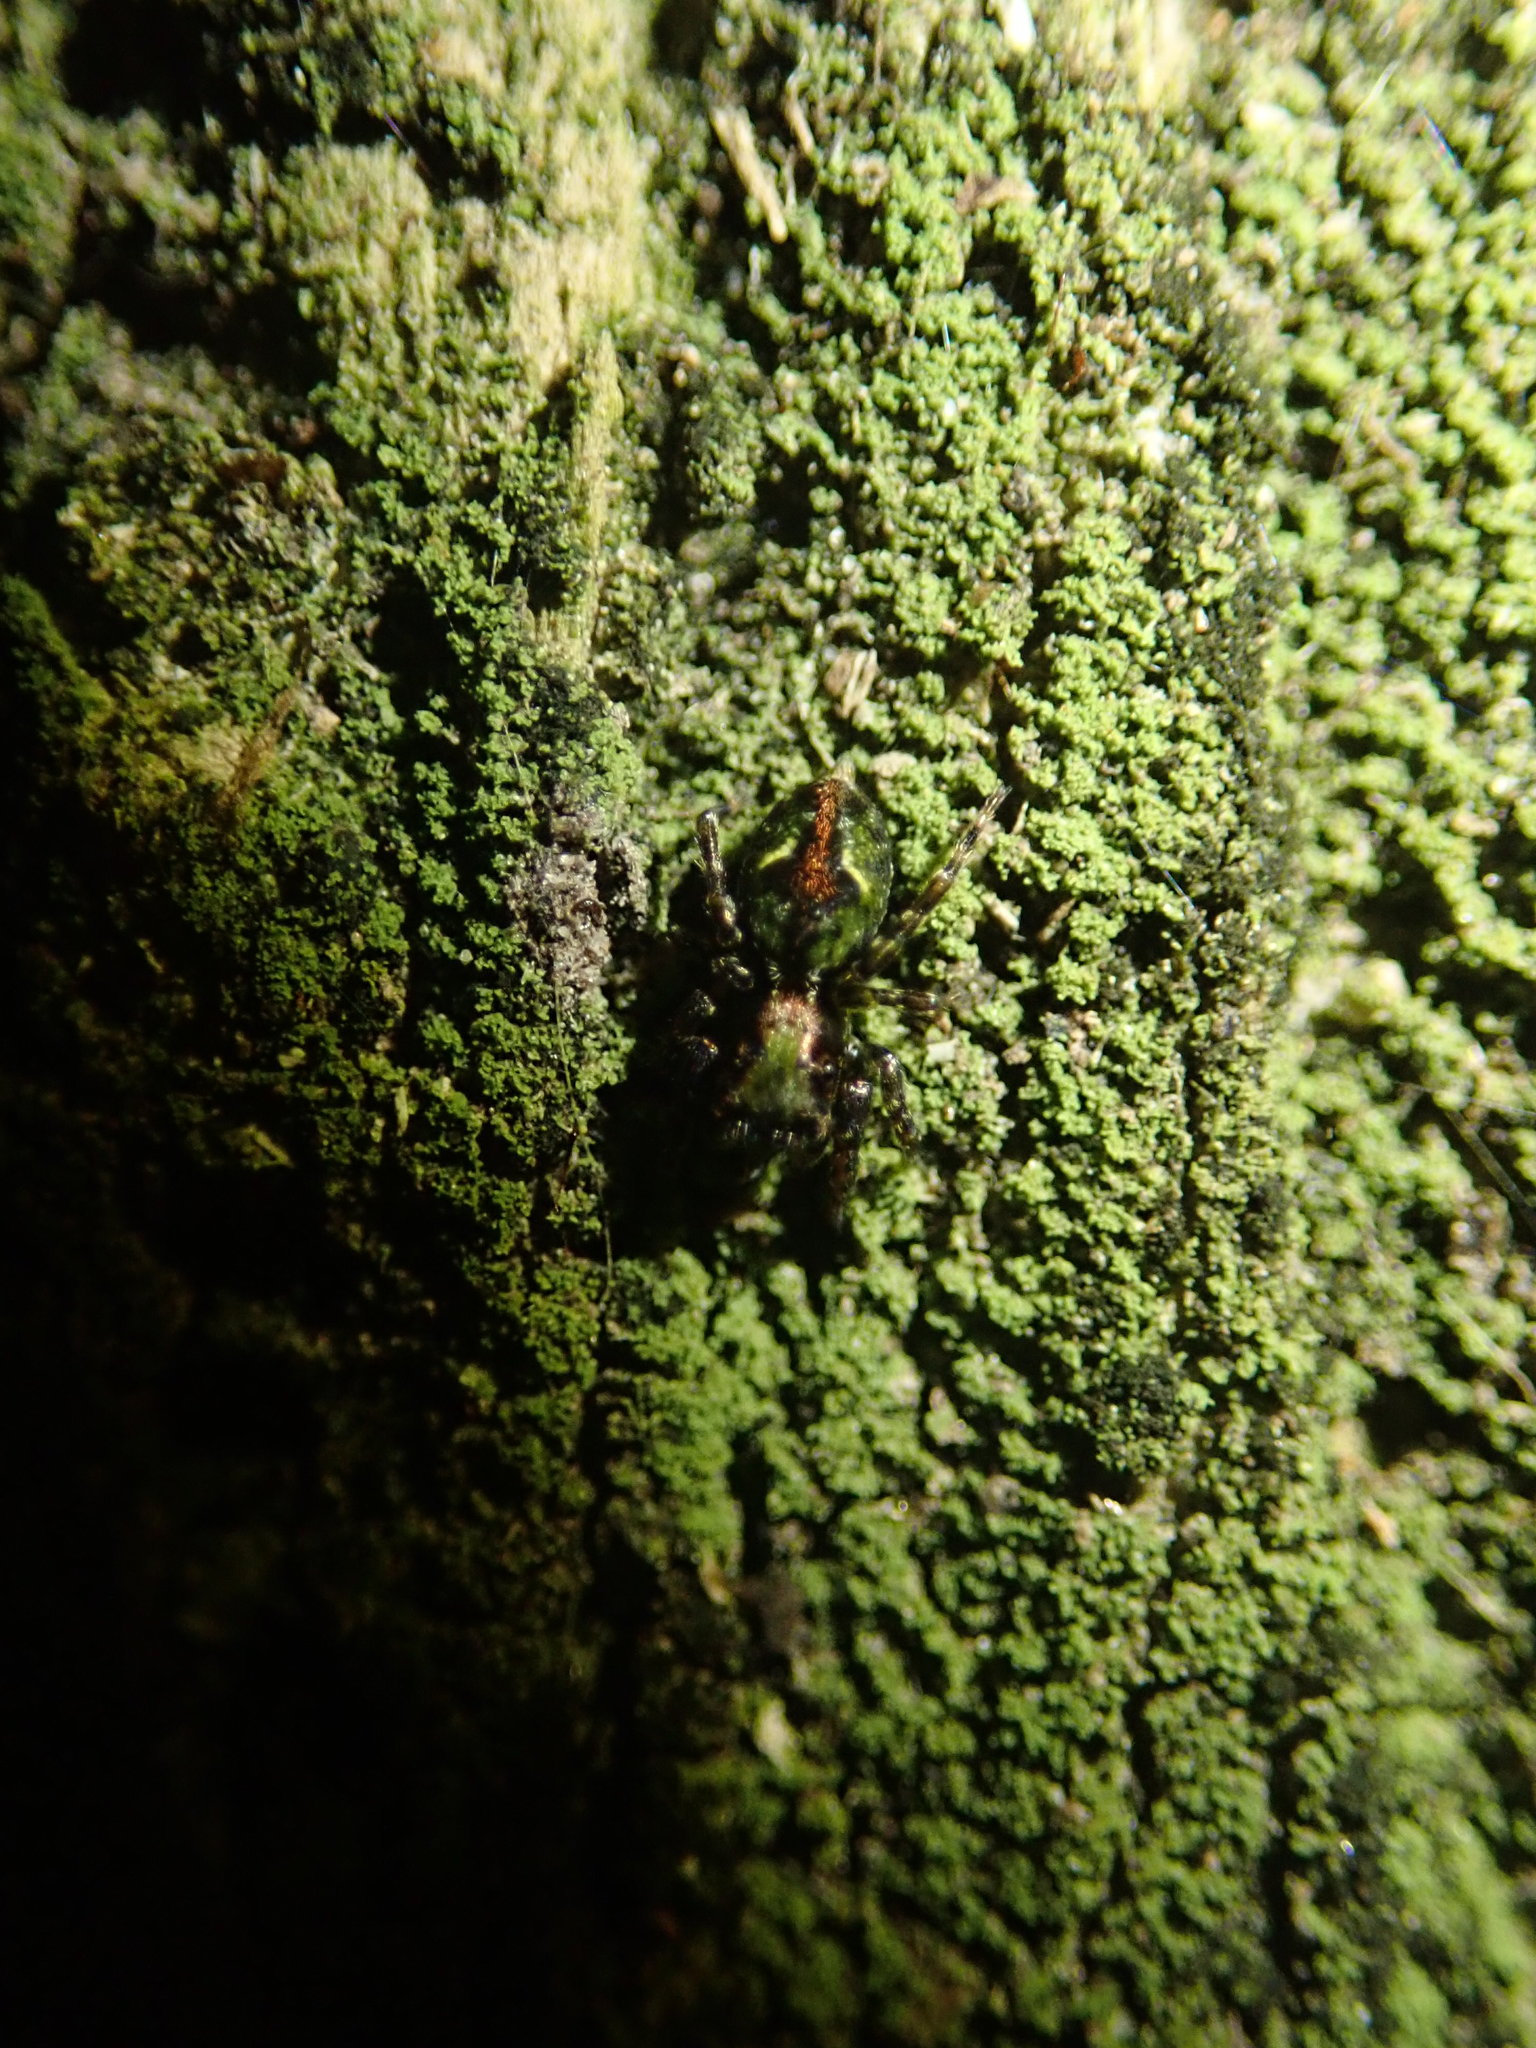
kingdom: Animalia
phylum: Arthropoda
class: Arachnida
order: Araneae
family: Salticidae
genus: Hinewaia
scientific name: Hinewaia embolica
